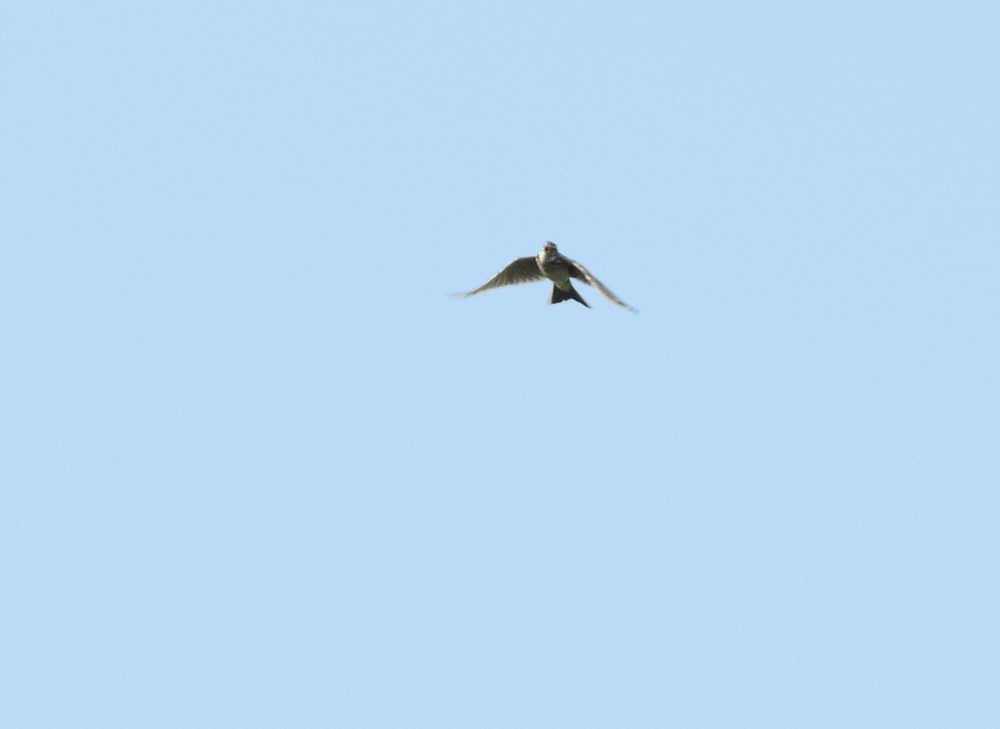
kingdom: Animalia
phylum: Chordata
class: Aves
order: Passeriformes
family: Alaudidae
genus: Alauda
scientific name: Alauda arvensis
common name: Eurasian skylark
